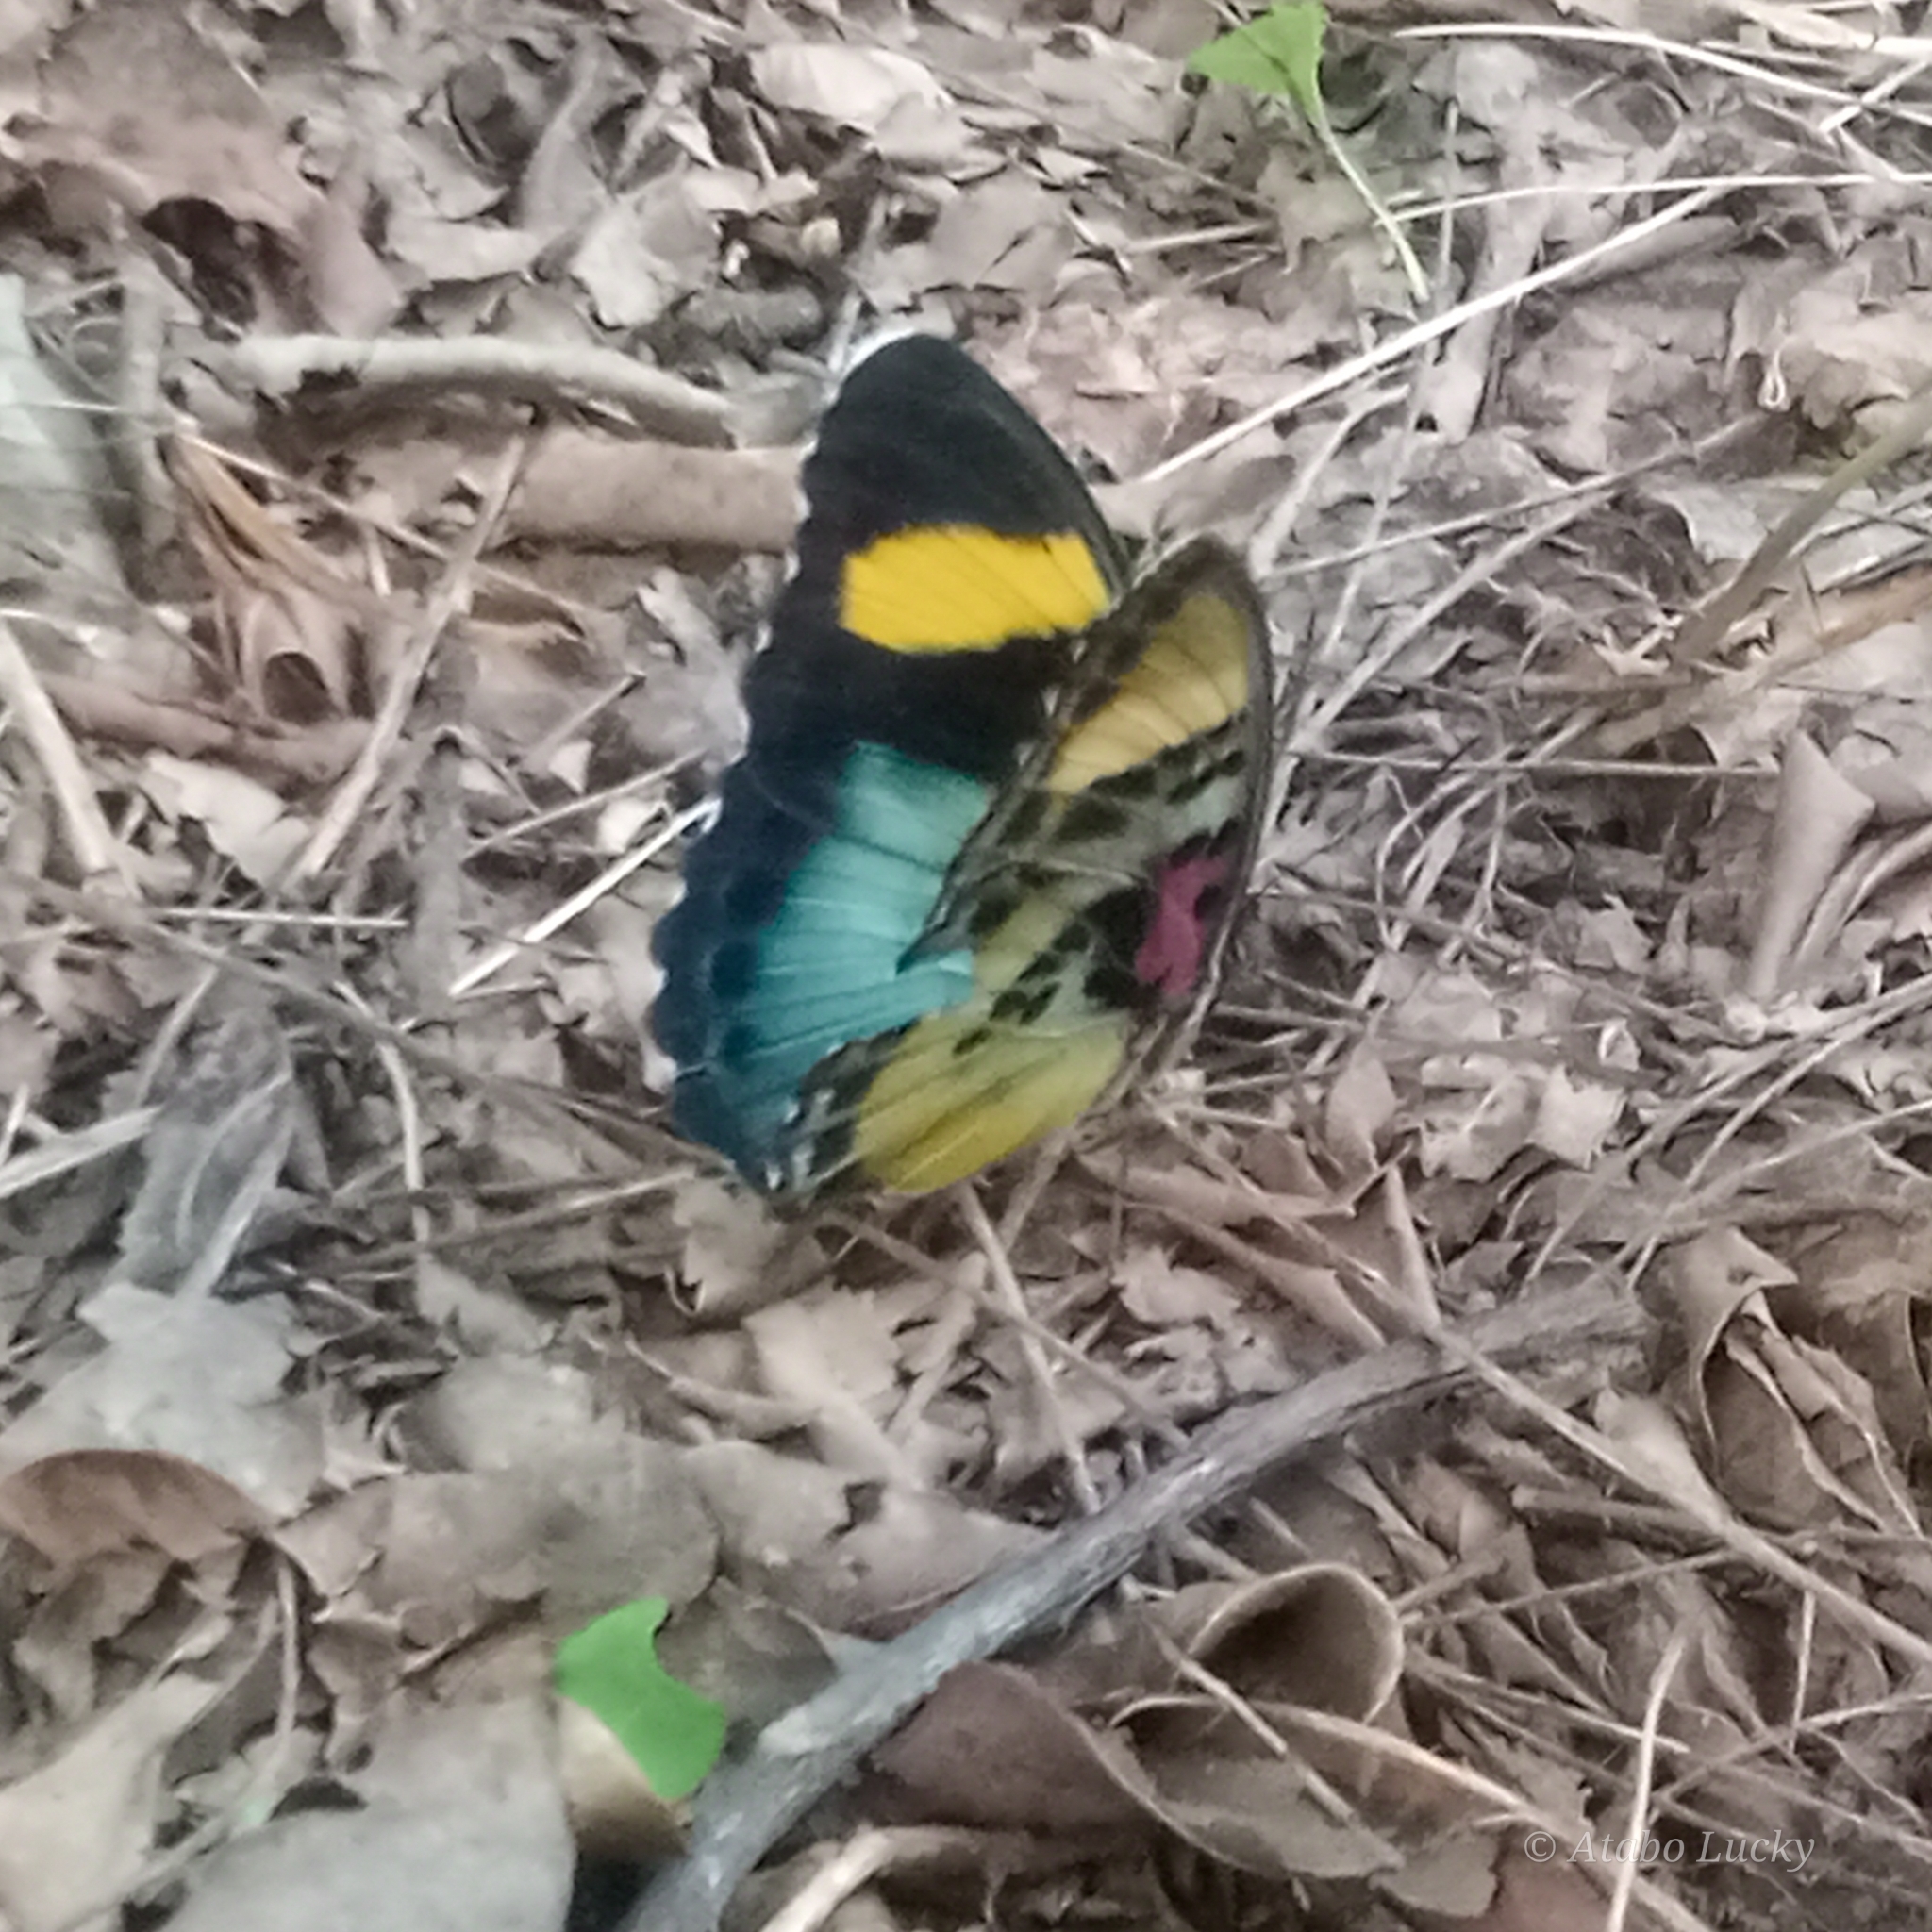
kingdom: Animalia
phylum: Arthropoda
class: Insecta
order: Lepidoptera
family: Nymphalidae
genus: Euphaedra
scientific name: Euphaedra themis
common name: Themis forester
